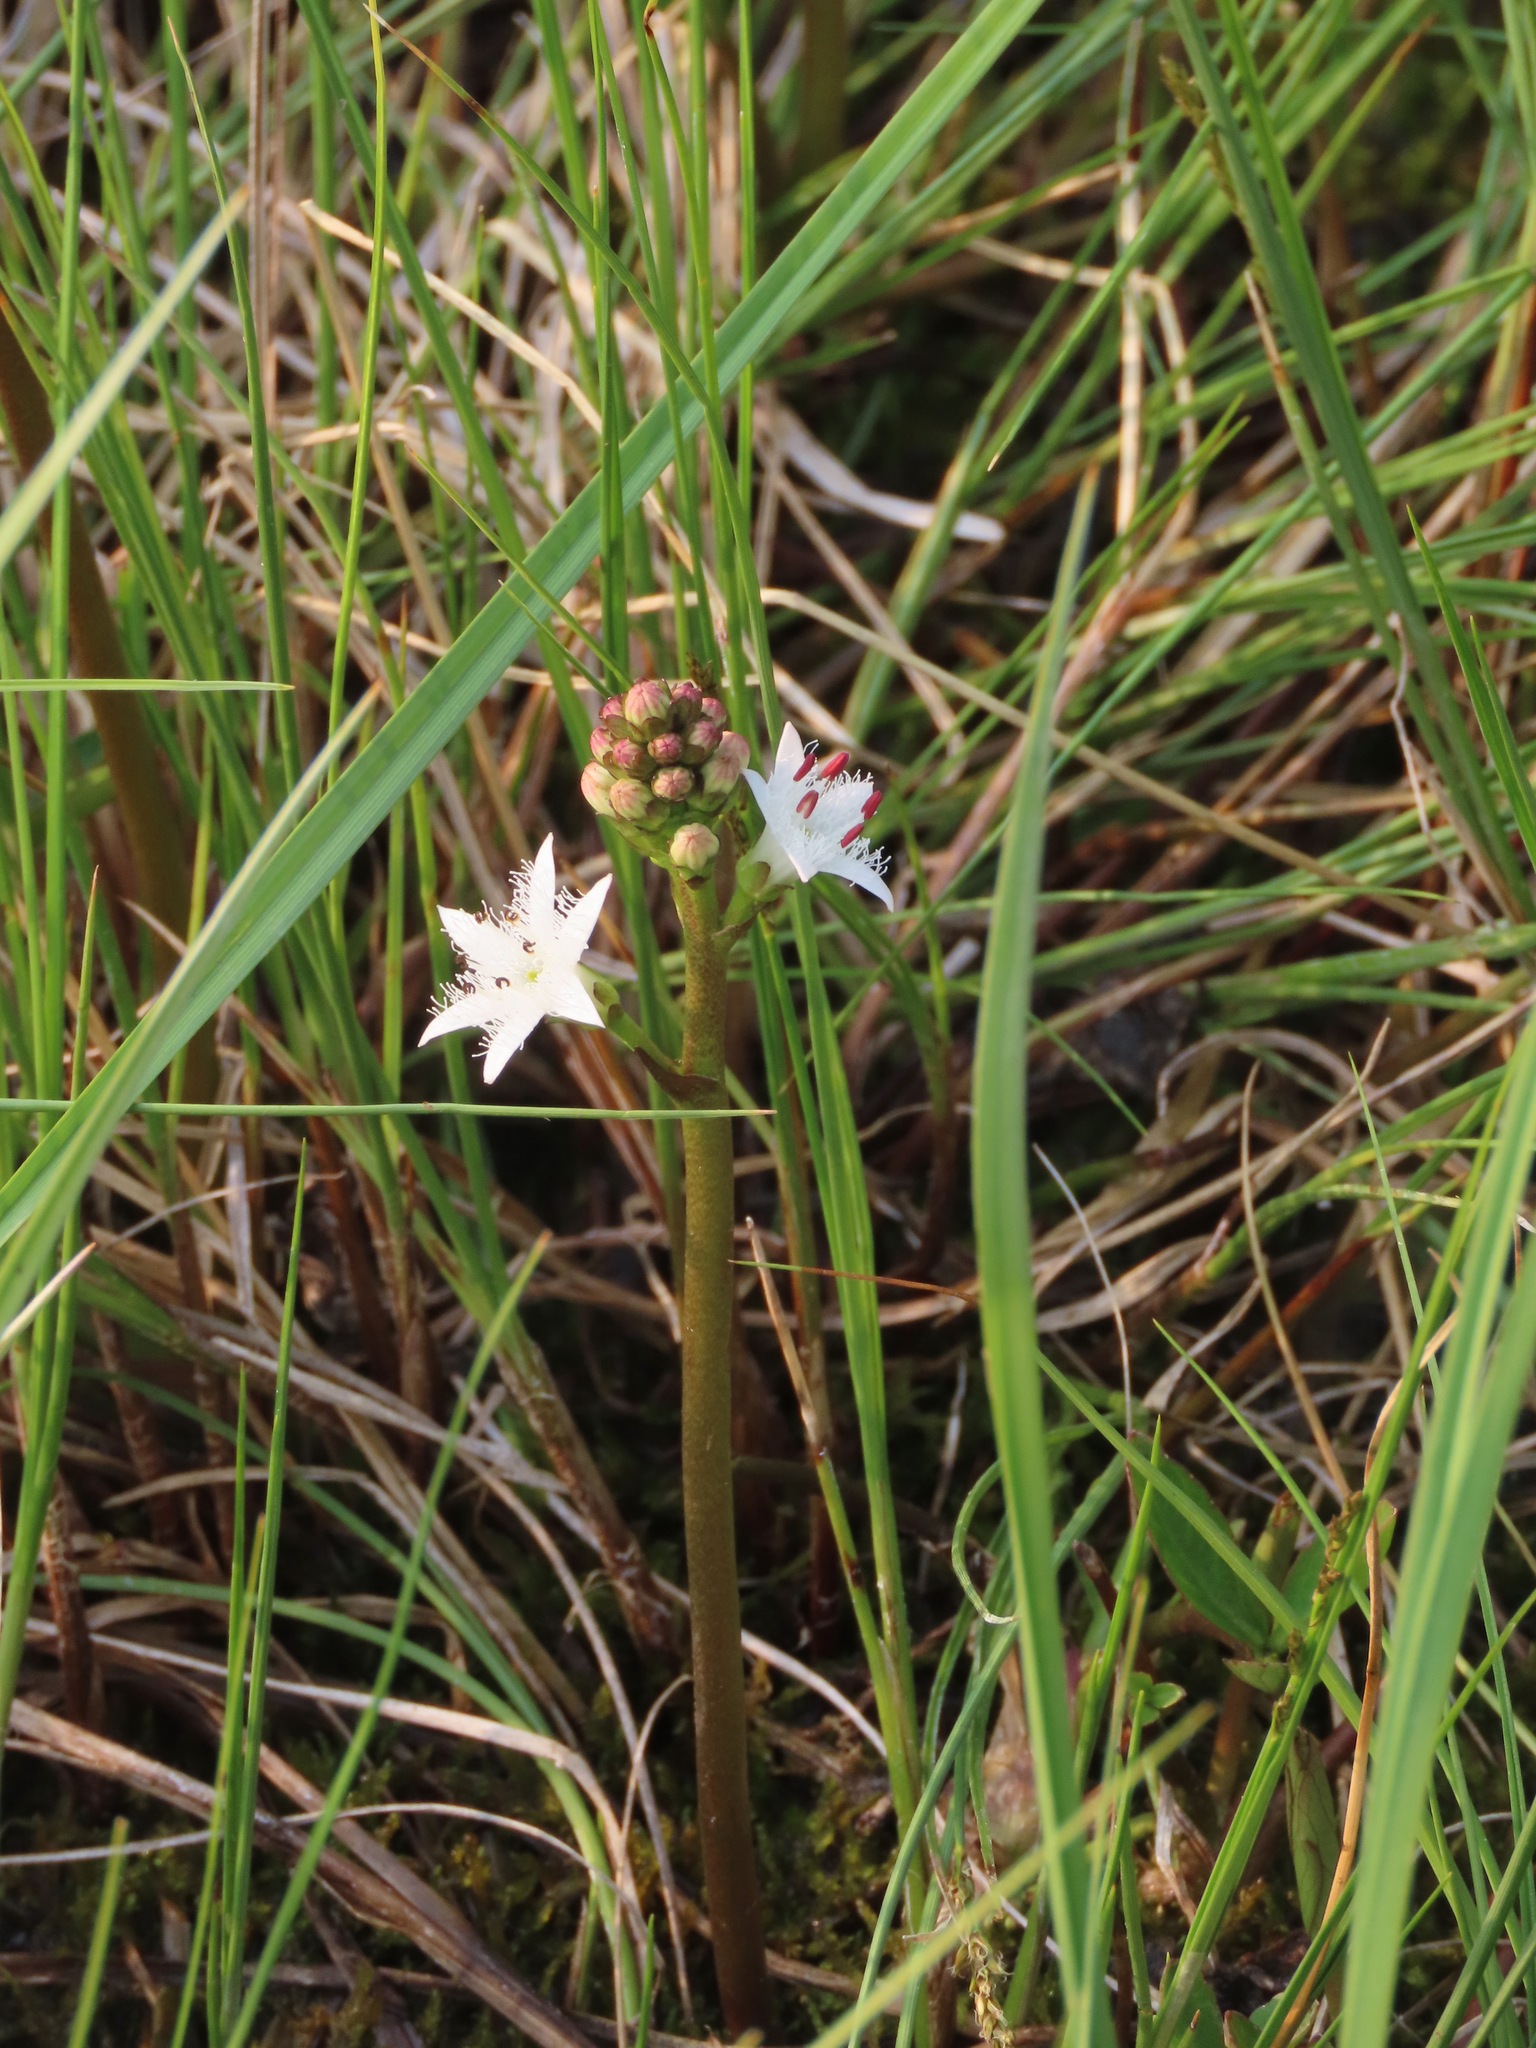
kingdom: Plantae
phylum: Tracheophyta
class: Magnoliopsida
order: Asterales
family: Menyanthaceae
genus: Menyanthes
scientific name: Menyanthes trifoliata
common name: Bogbean
